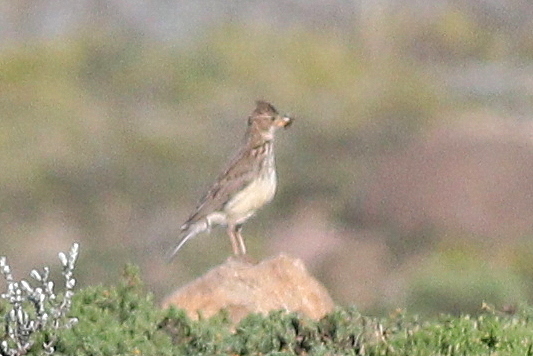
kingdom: Animalia
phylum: Chordata
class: Aves
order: Passeriformes
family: Alaudidae
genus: Galerida
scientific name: Galerida magnirostris
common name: Large-billed lark
